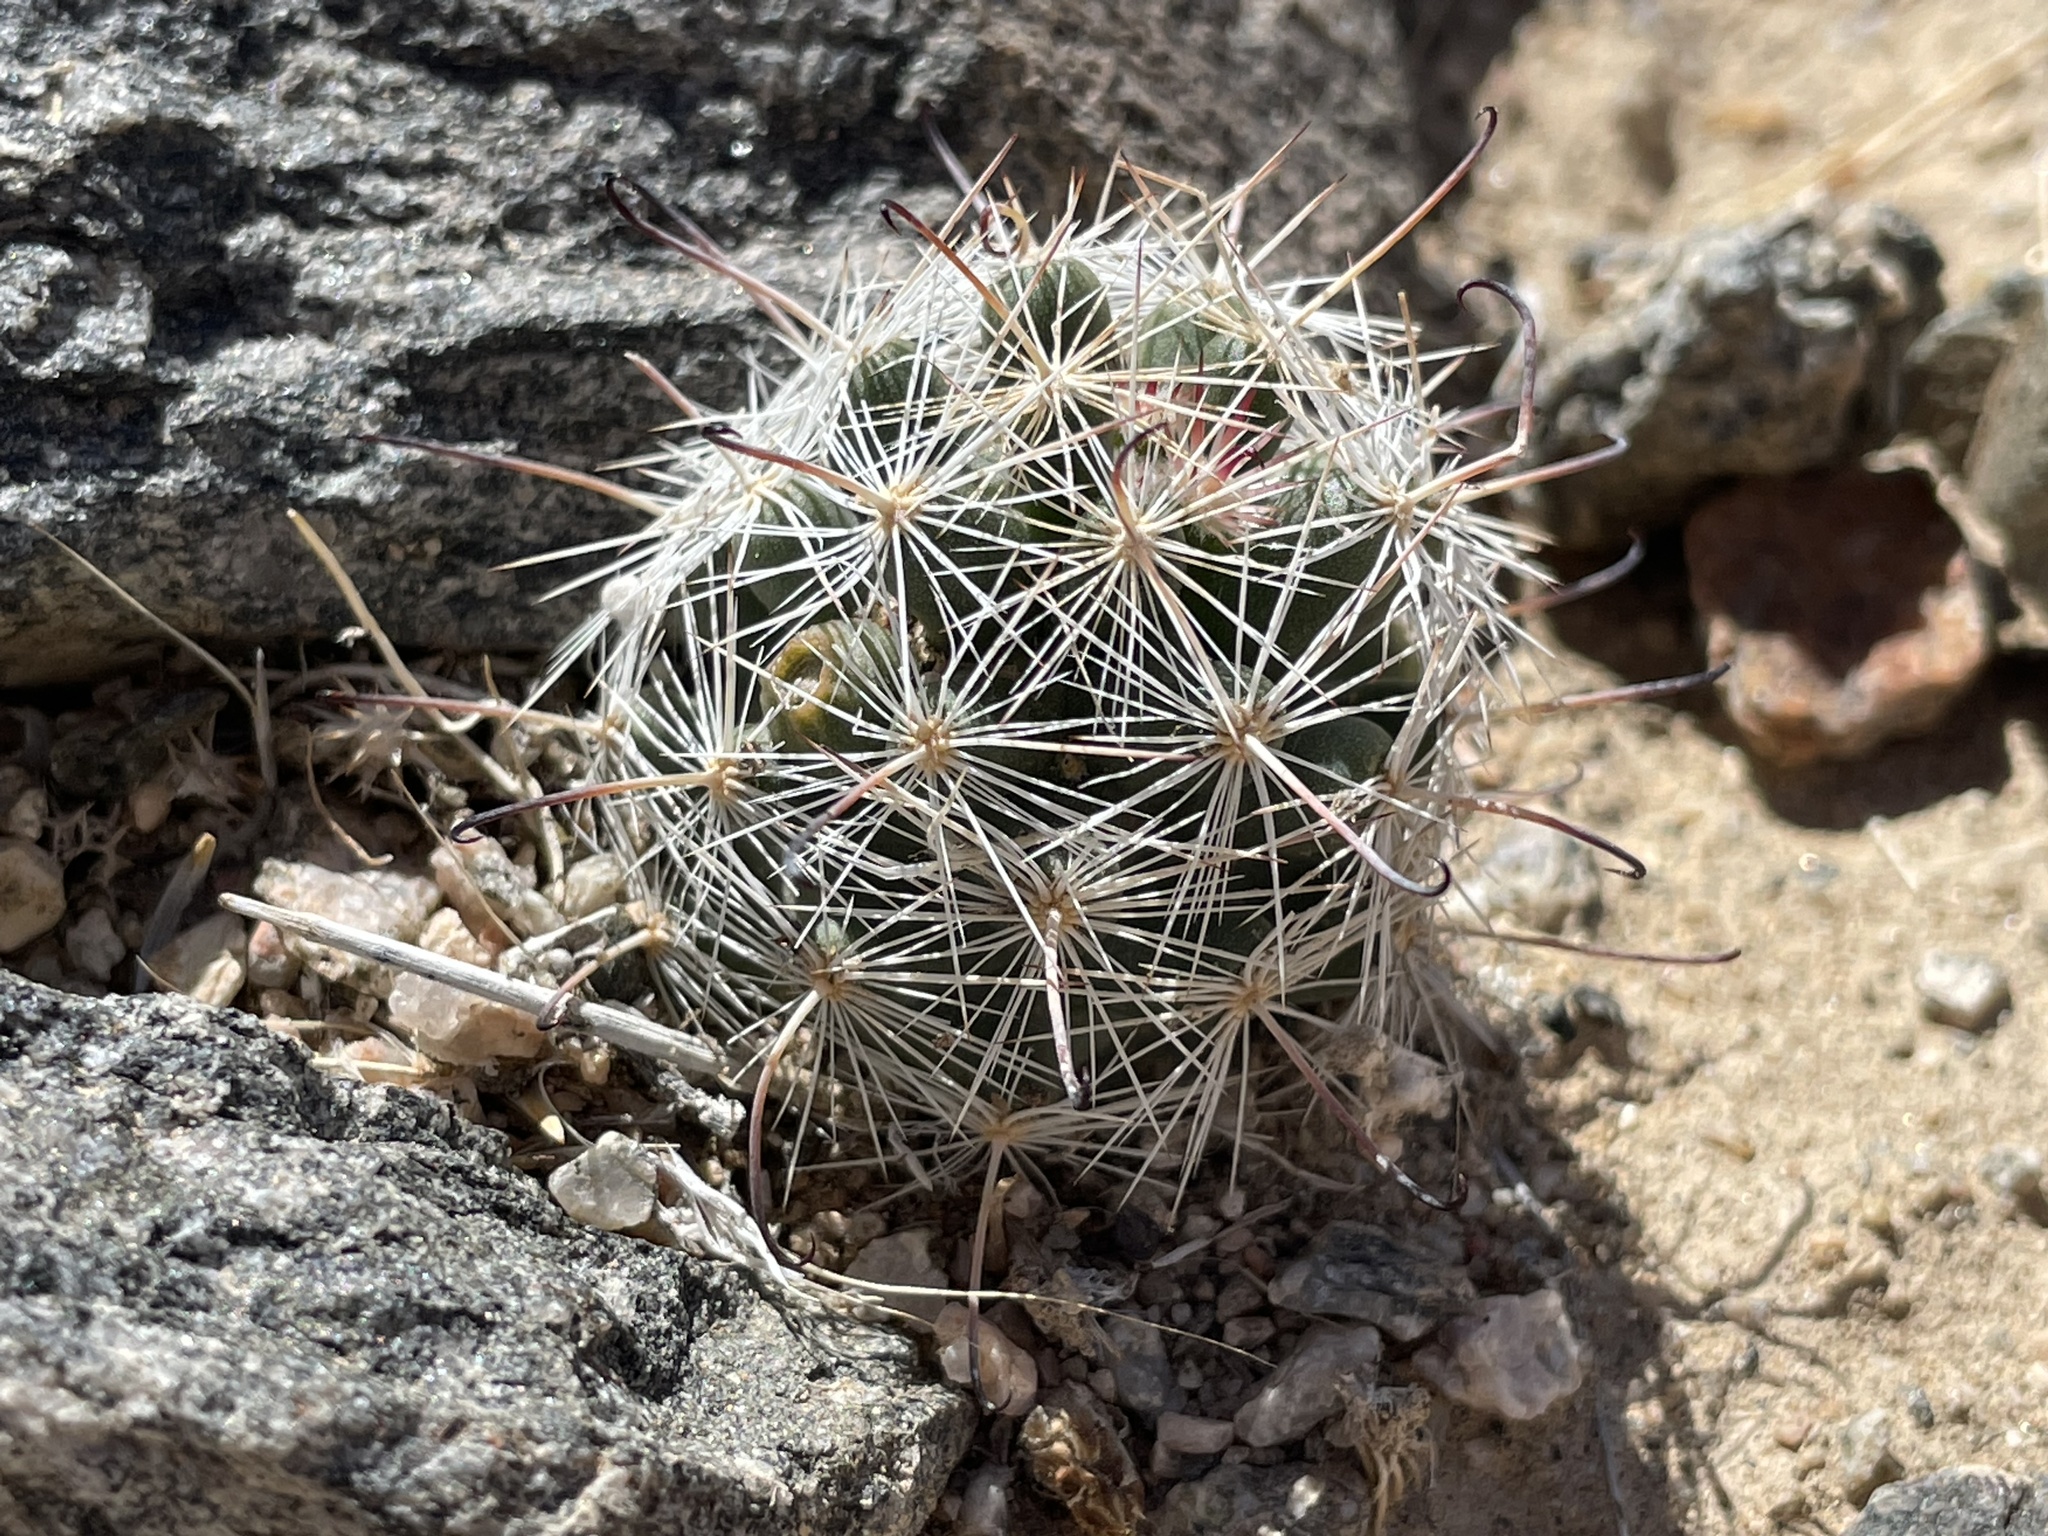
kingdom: Plantae
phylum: Tracheophyta
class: Magnoliopsida
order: Caryophyllales
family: Cactaceae
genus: Cochemiea
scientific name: Cochemiea tetrancistra
